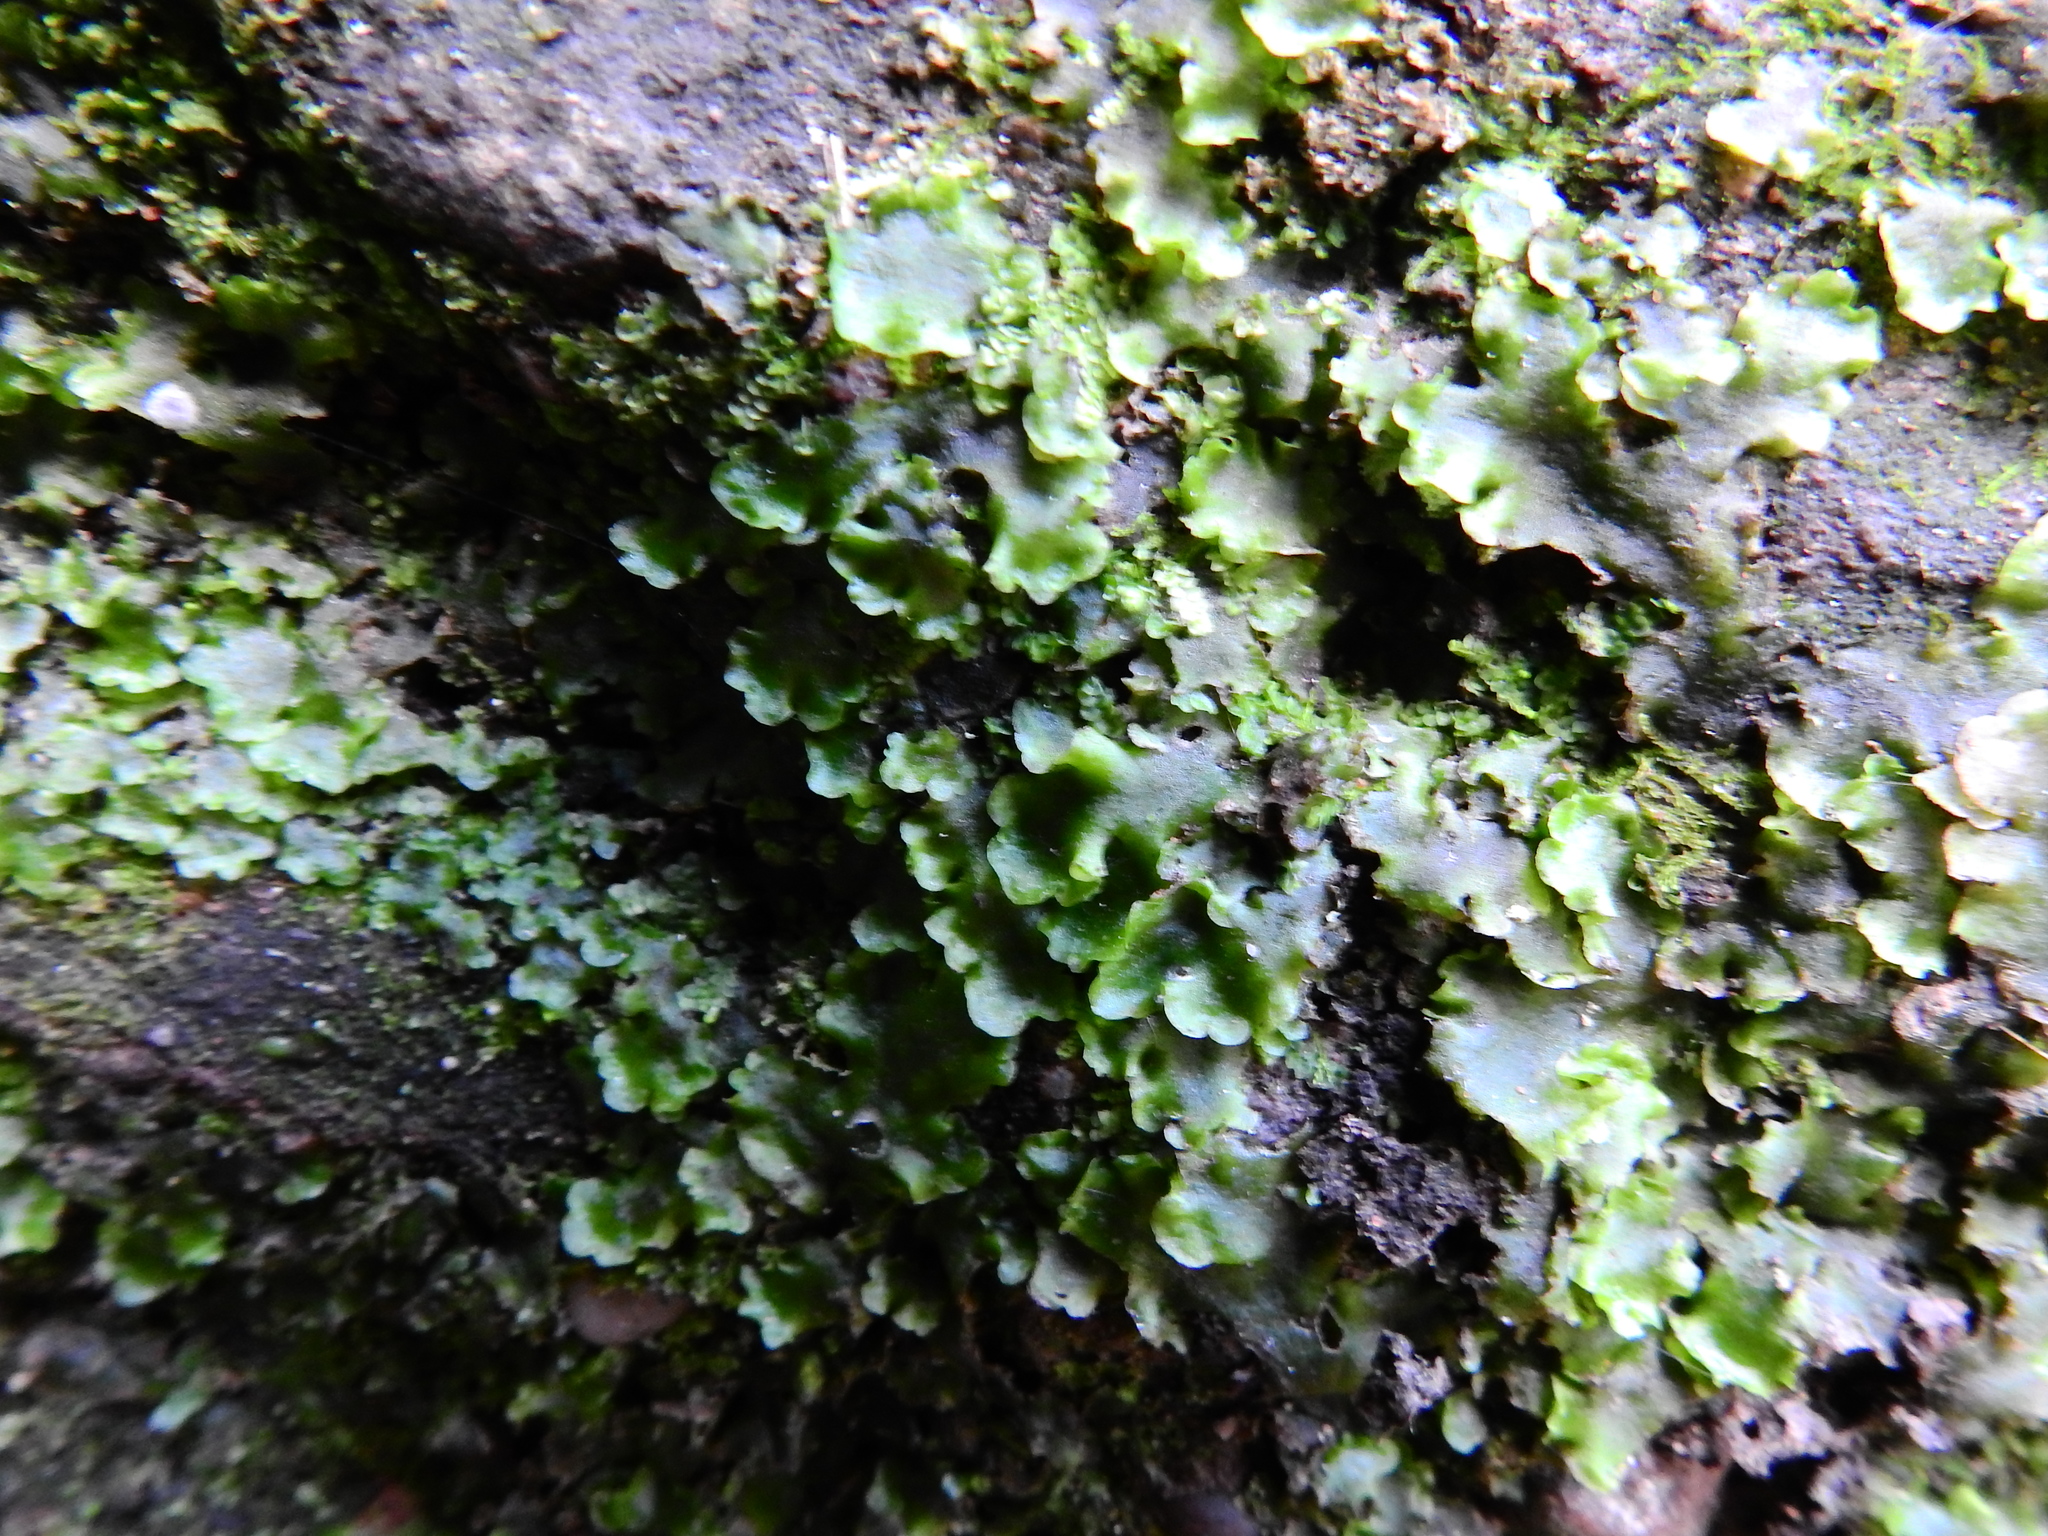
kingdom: Plantae
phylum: Marchantiophyta
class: Jungermanniopsida
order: Pelliales
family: Pelliaceae
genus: Pellia
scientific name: Pellia neesiana
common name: Nees  pellia
